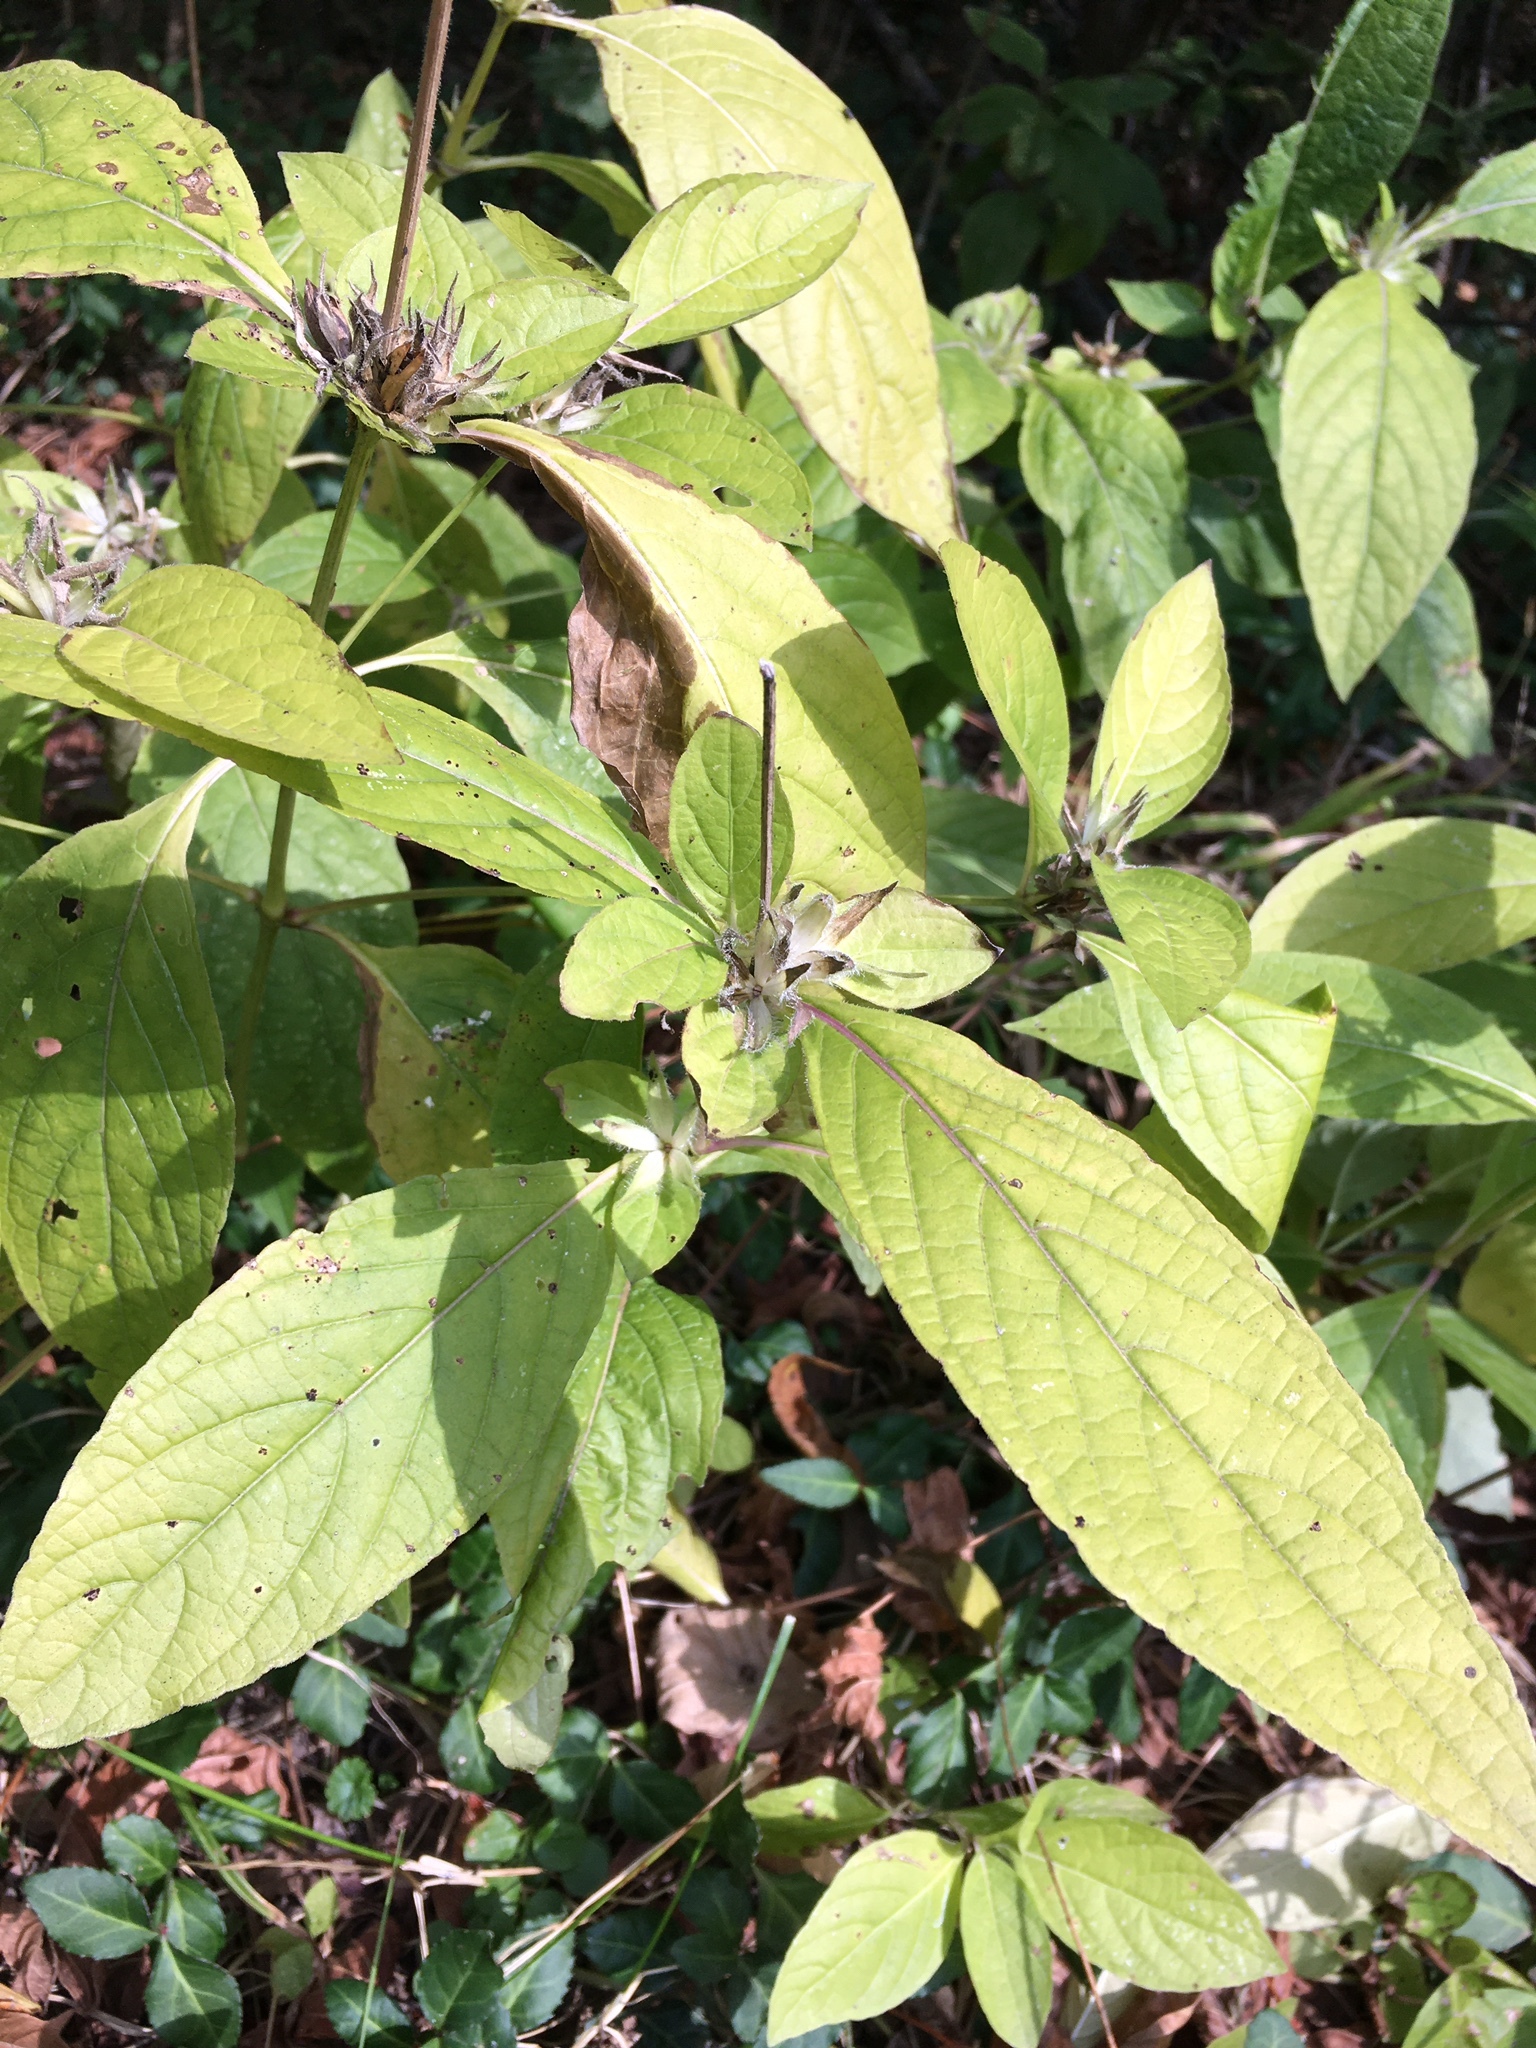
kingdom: Plantae
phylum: Tracheophyta
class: Magnoliopsida
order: Lamiales
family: Acanthaceae
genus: Ruellia
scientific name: Ruellia strepens
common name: Limestone wild petunia
